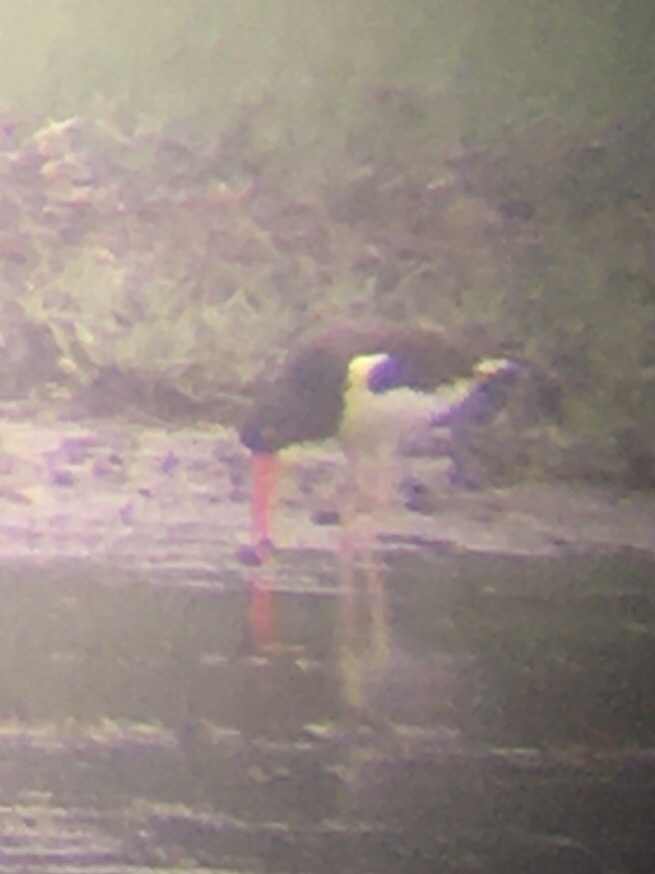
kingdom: Animalia
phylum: Chordata
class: Aves
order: Charadriiformes
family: Haematopodidae
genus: Haematopus
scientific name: Haematopus palliatus
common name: American oystercatcher
